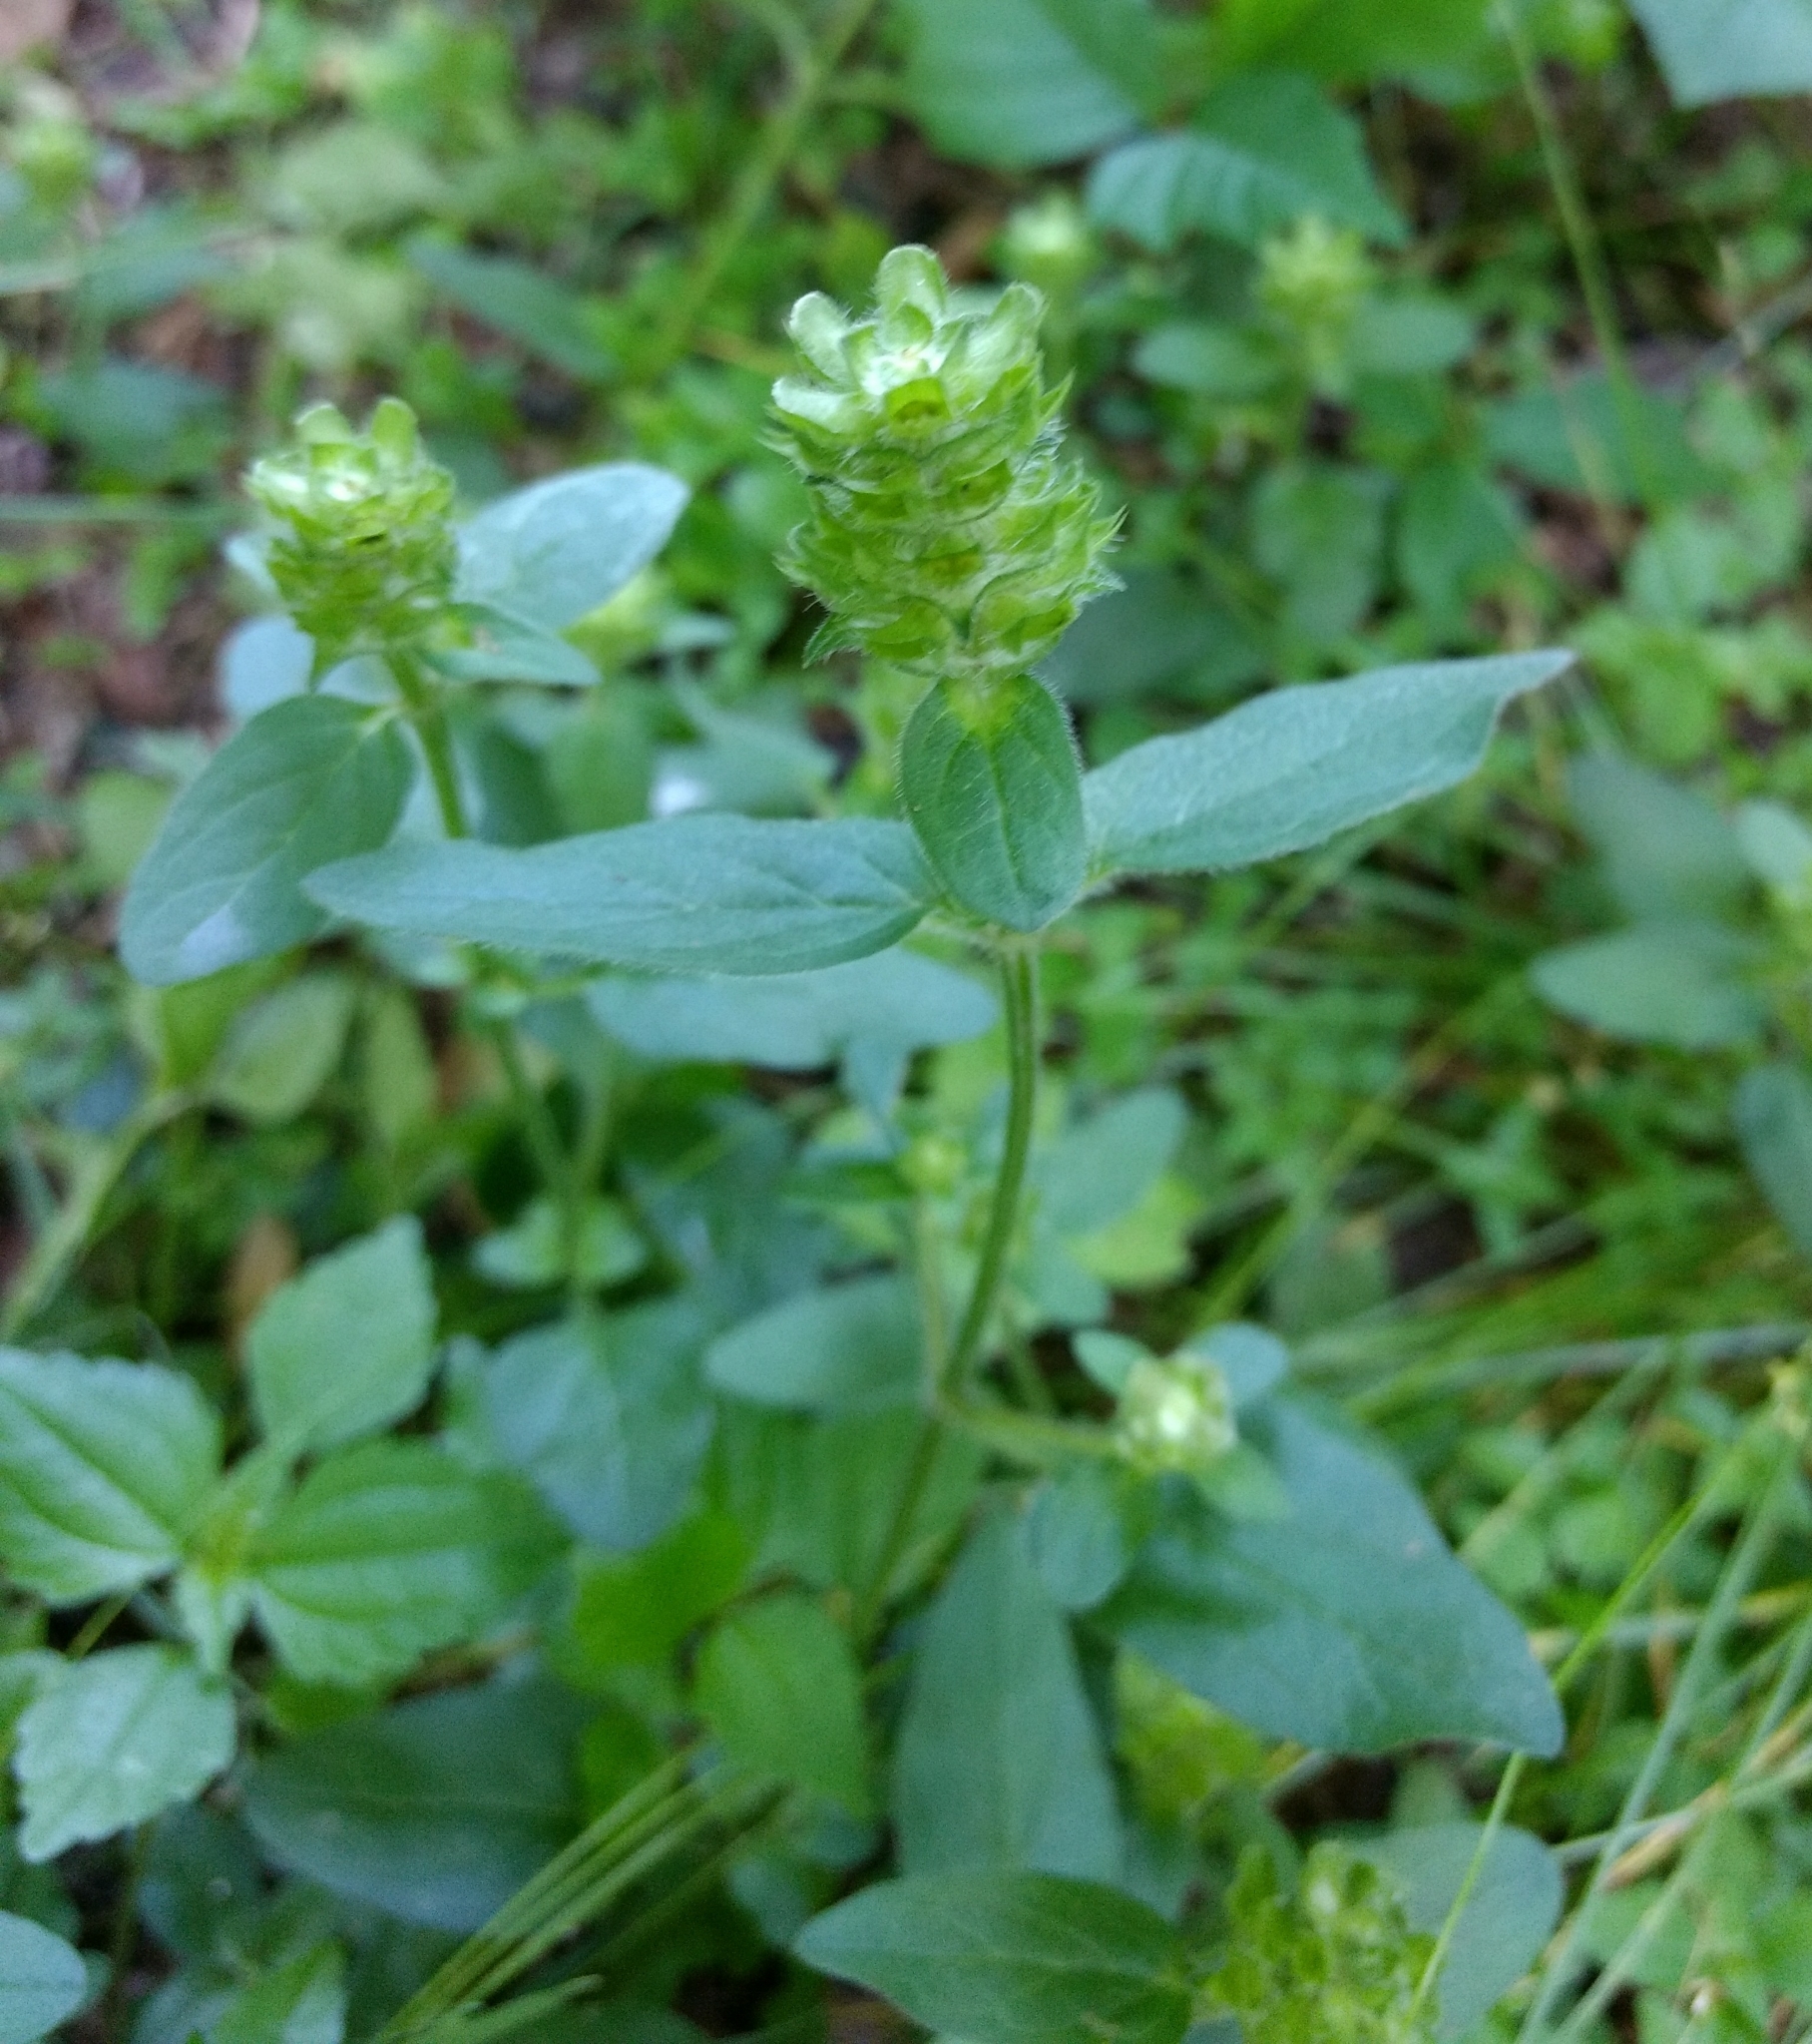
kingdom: Plantae
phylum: Tracheophyta
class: Magnoliopsida
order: Lamiales
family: Lamiaceae
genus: Prunella
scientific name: Prunella vulgaris
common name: Heal-all
